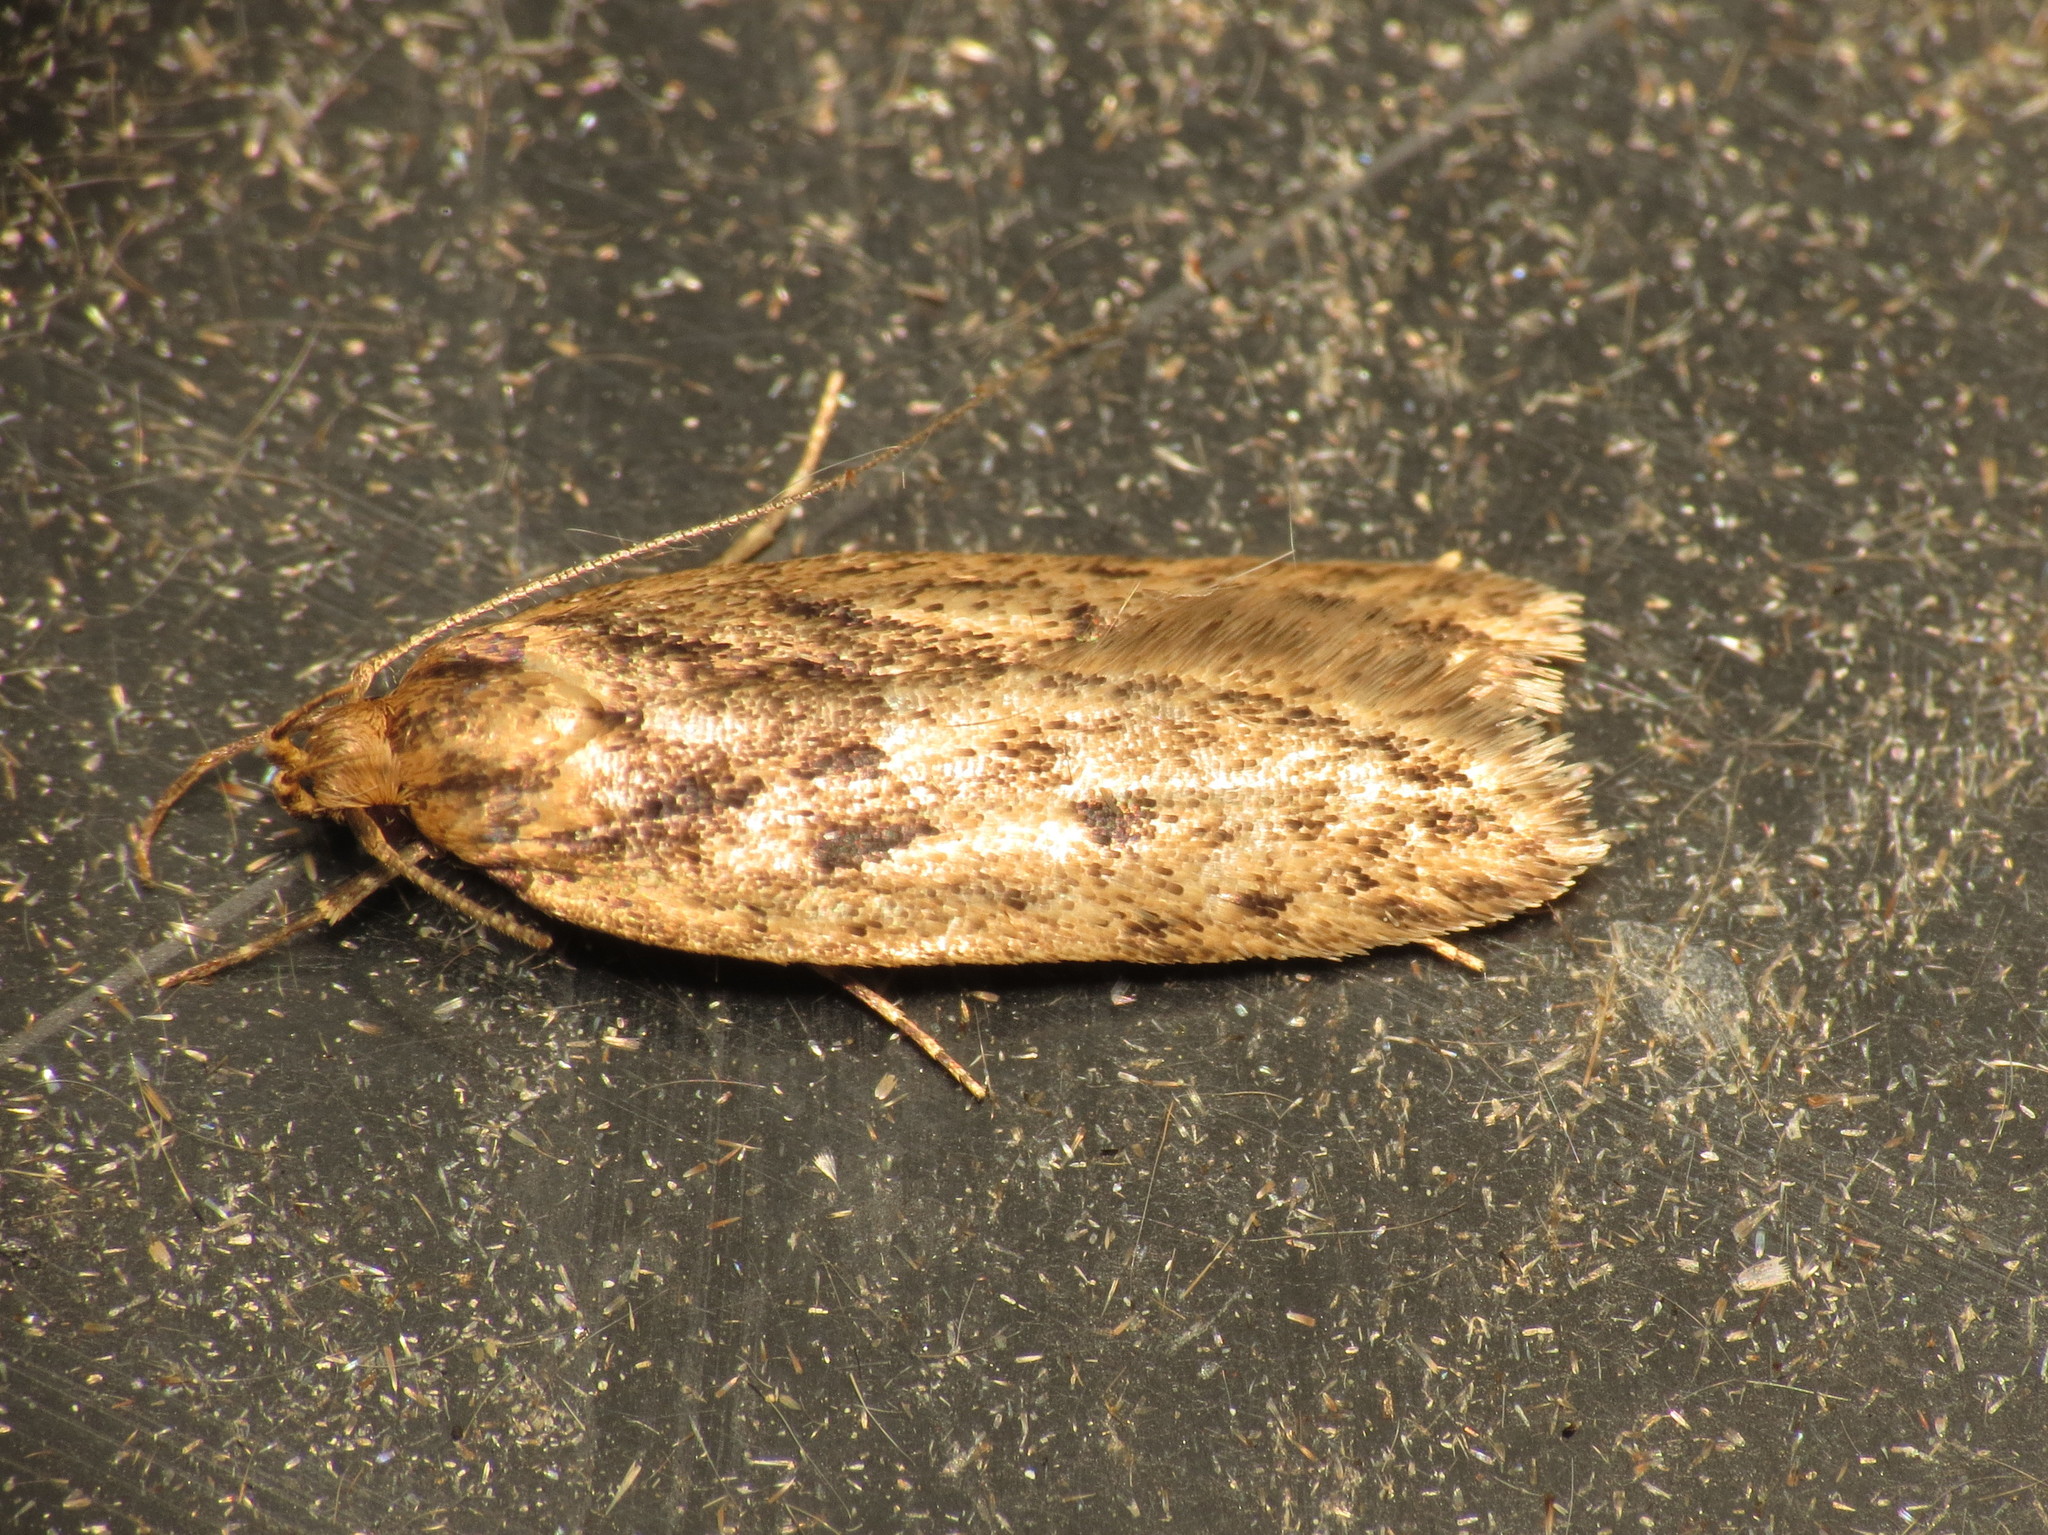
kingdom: Animalia
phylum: Arthropoda
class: Insecta
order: Lepidoptera
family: Oecophoridae
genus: Hofmannophila
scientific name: Hofmannophila pseudospretella
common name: Brown house moth
